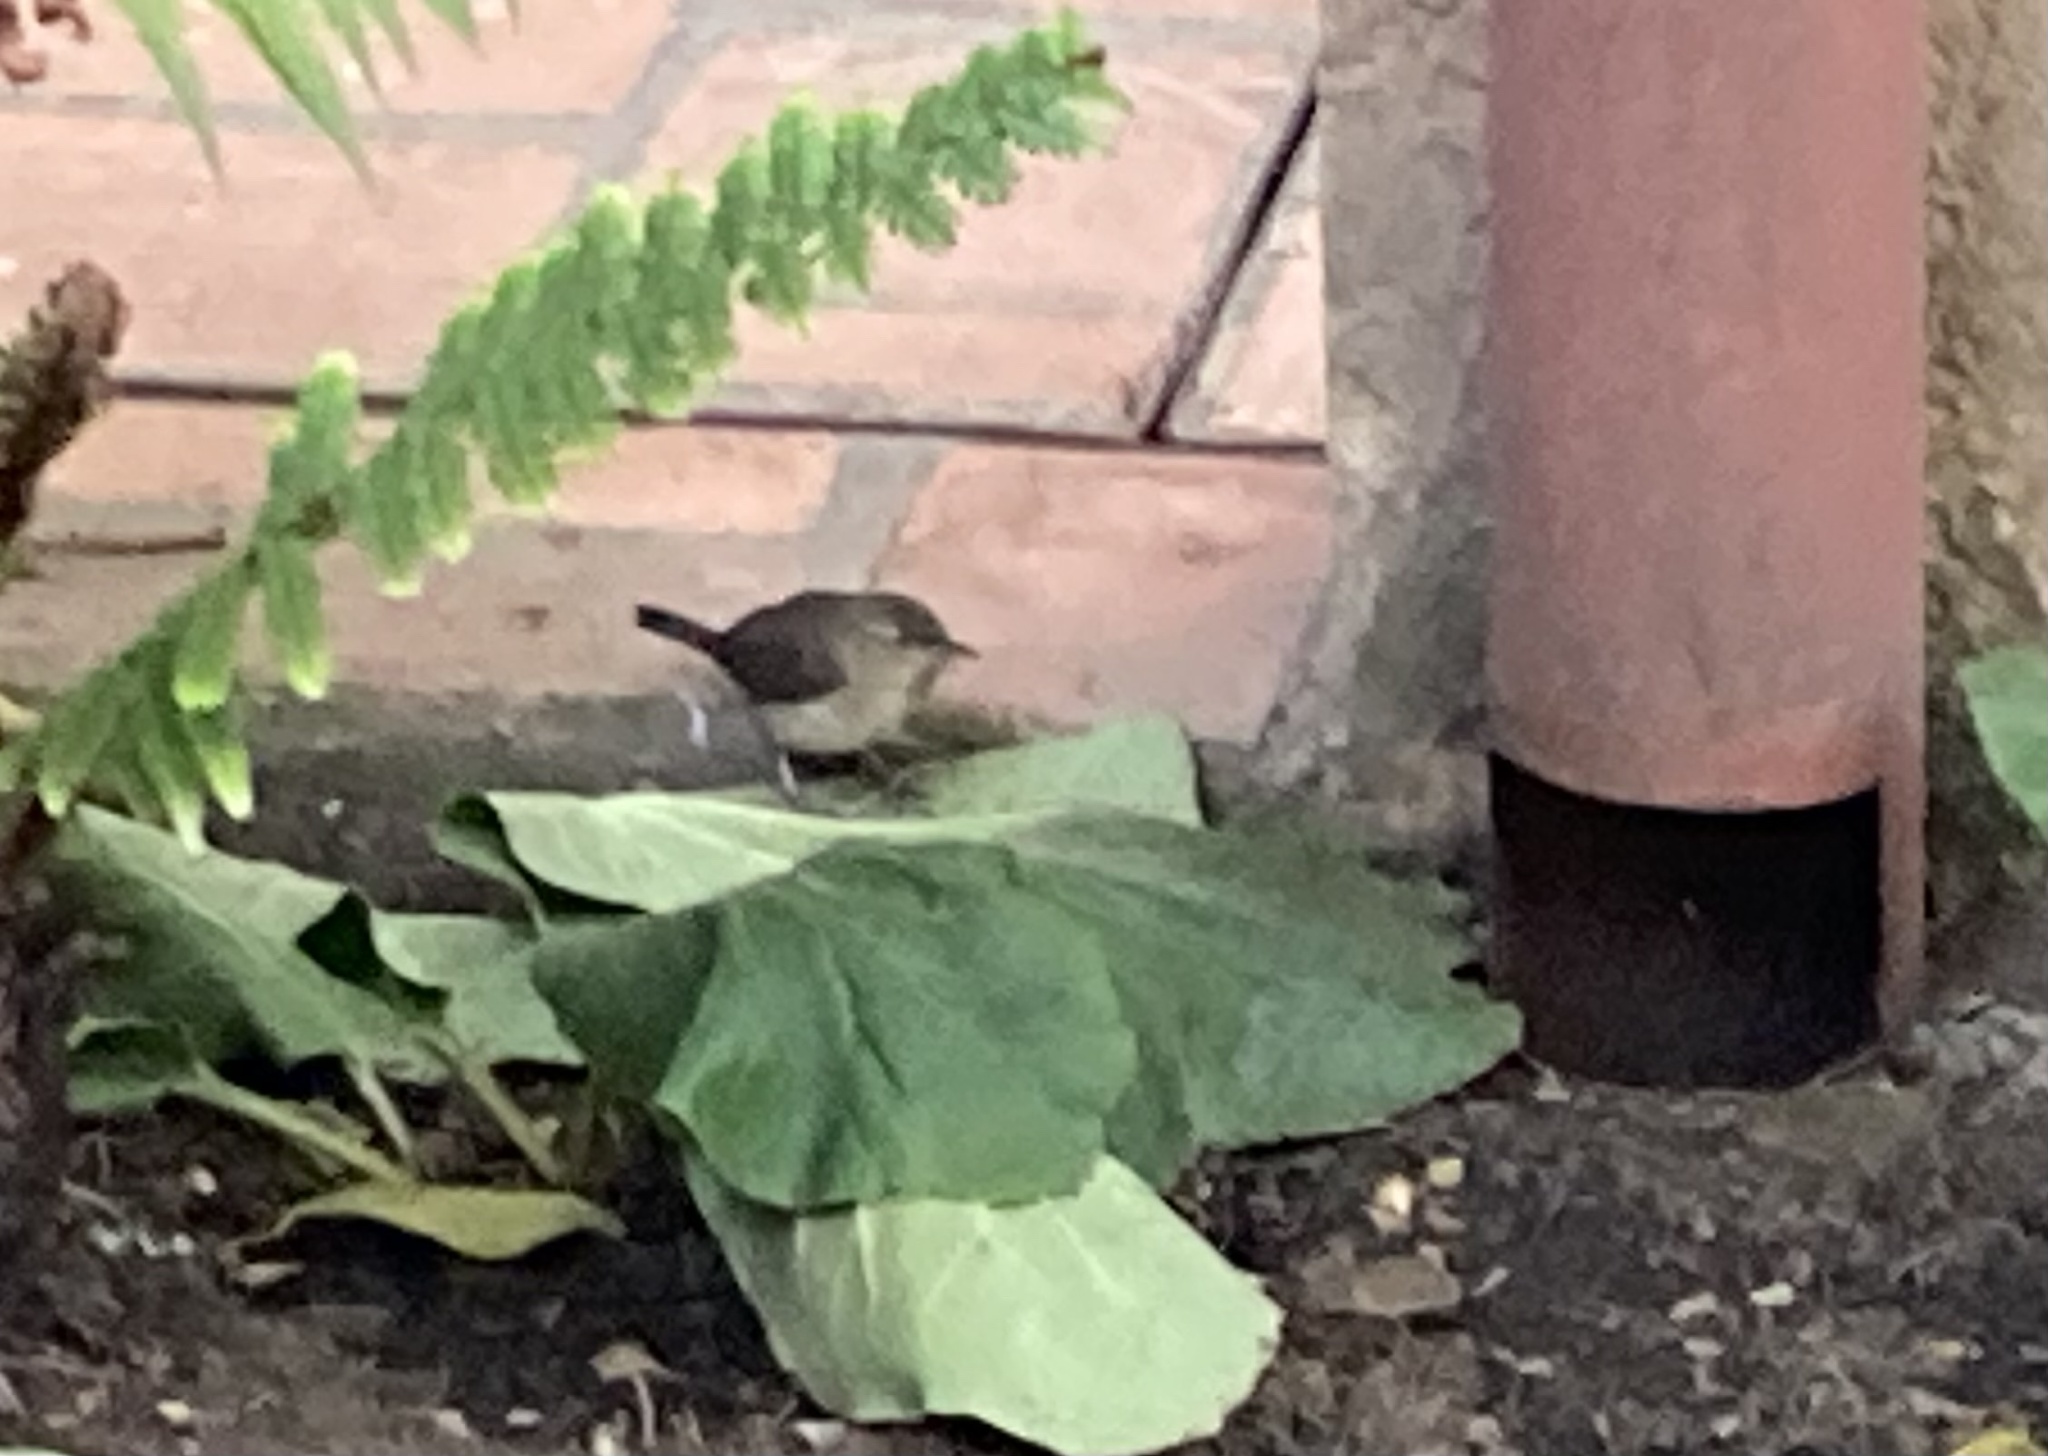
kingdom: Animalia
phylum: Chordata
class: Aves
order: Passeriformes
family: Troglodytidae
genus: Troglodytes
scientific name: Troglodytes aedon
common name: House wren
